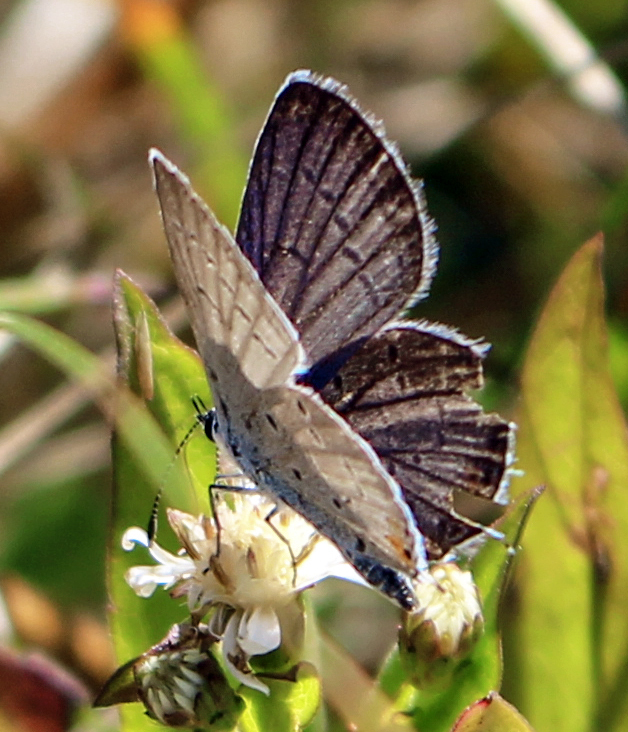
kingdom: Animalia
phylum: Arthropoda
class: Insecta
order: Lepidoptera
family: Lycaenidae
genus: Elkalyce
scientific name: Elkalyce comyntas
